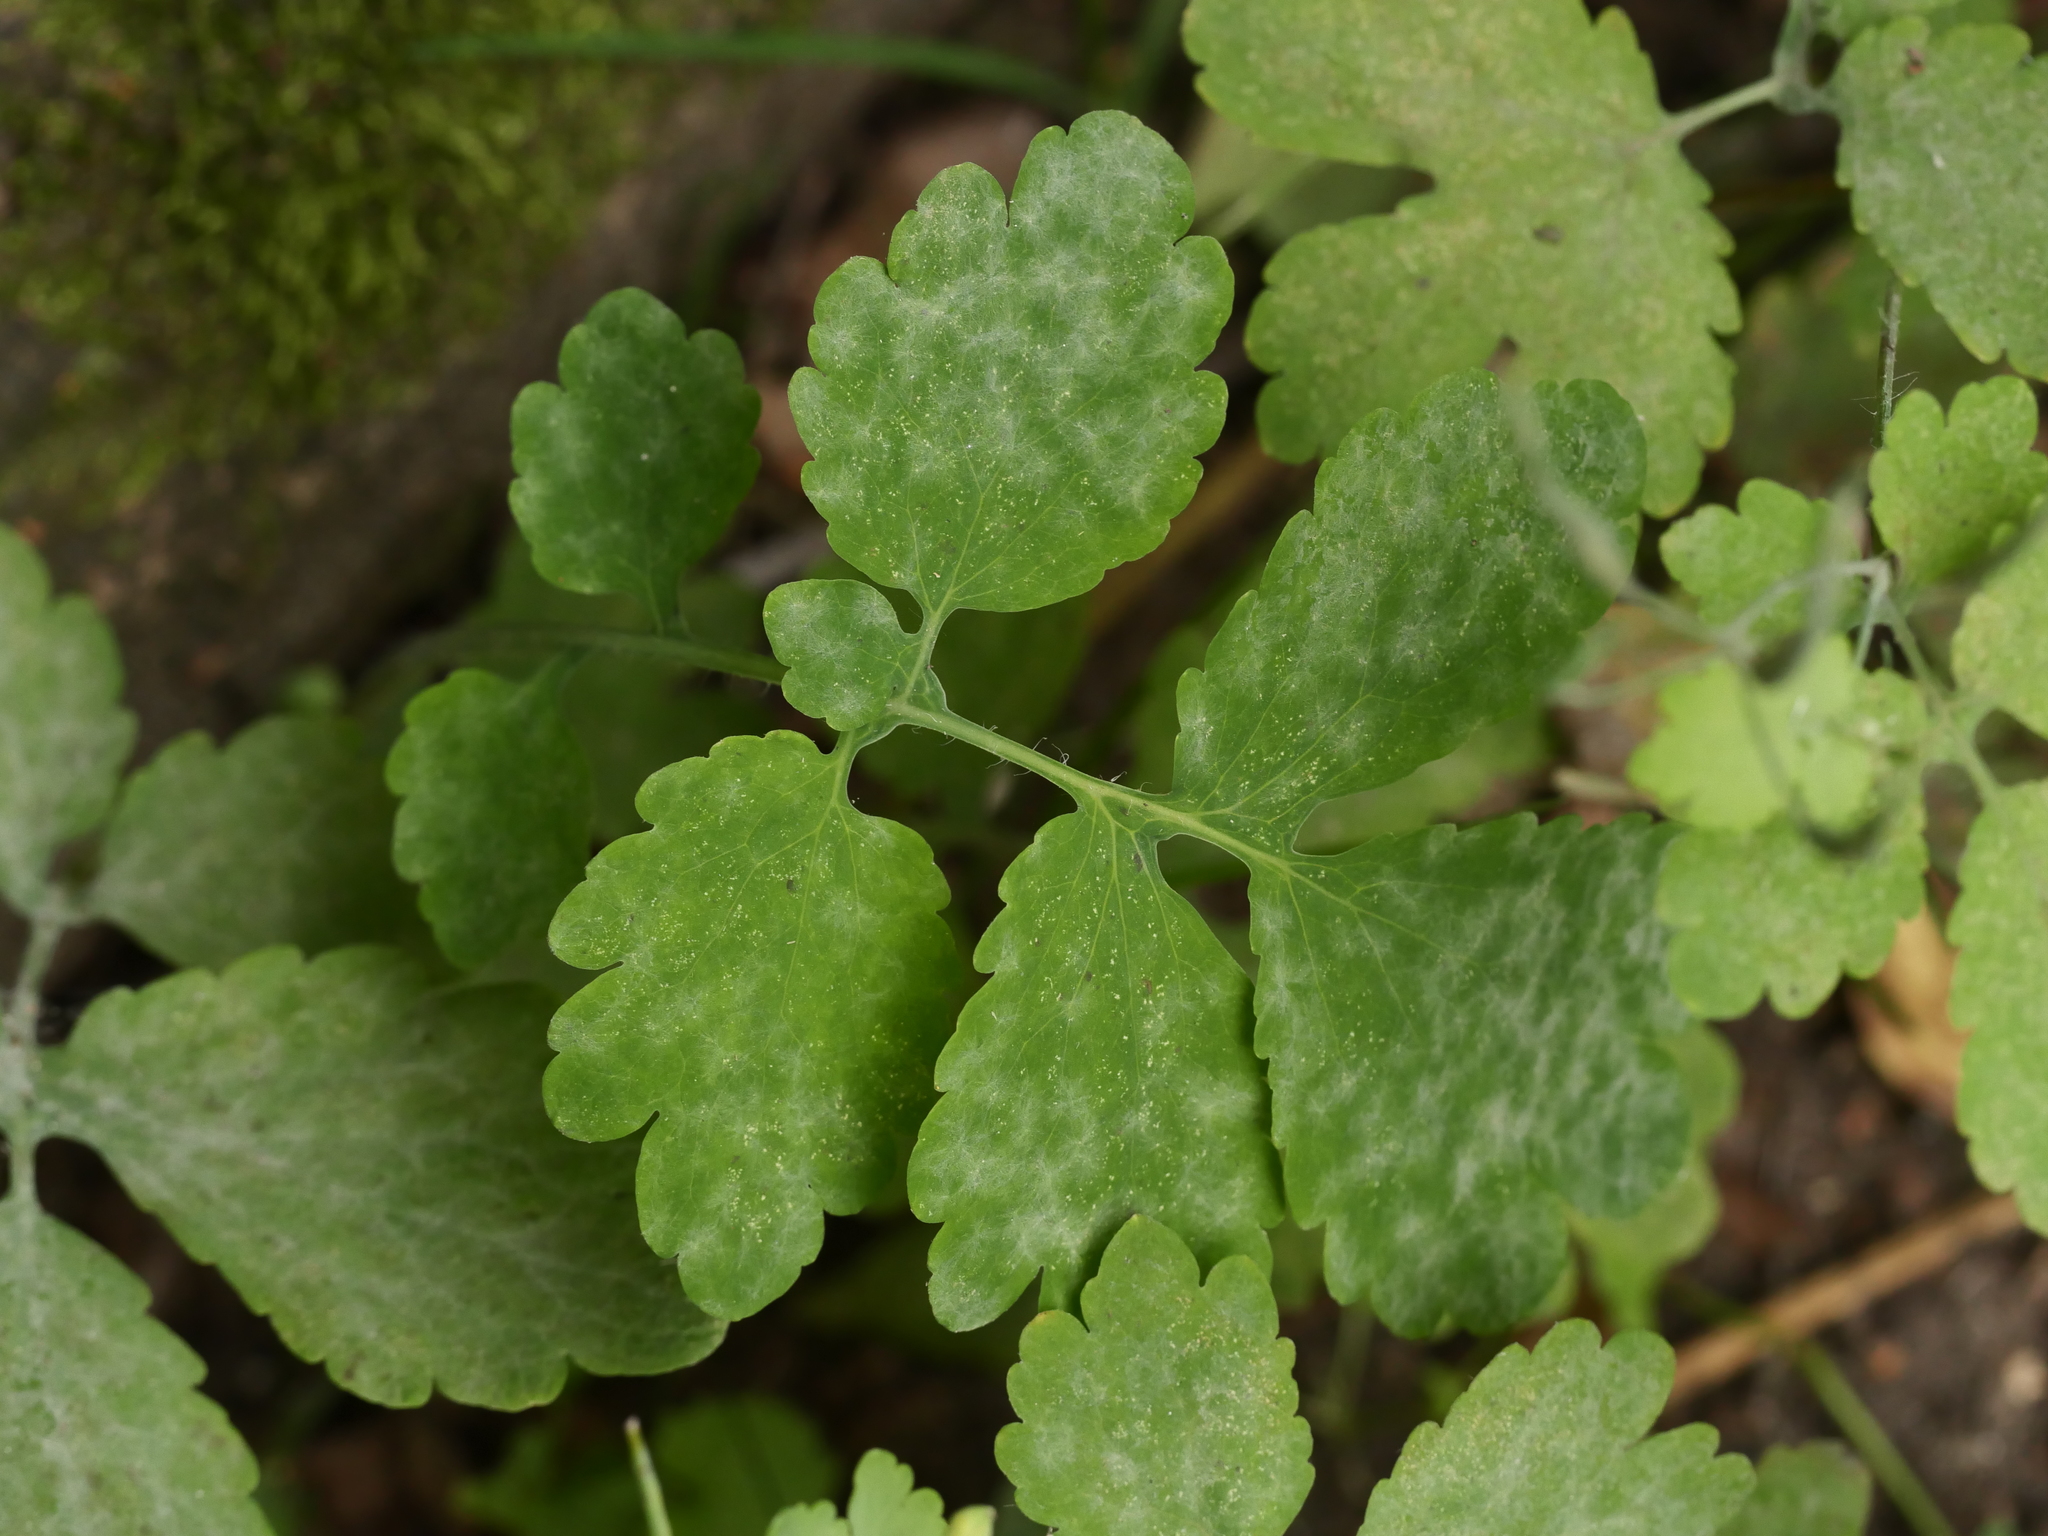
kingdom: Fungi
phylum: Ascomycota
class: Leotiomycetes
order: Helotiales
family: Erysiphaceae
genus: Erysiphe
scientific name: Erysiphe macleayae
